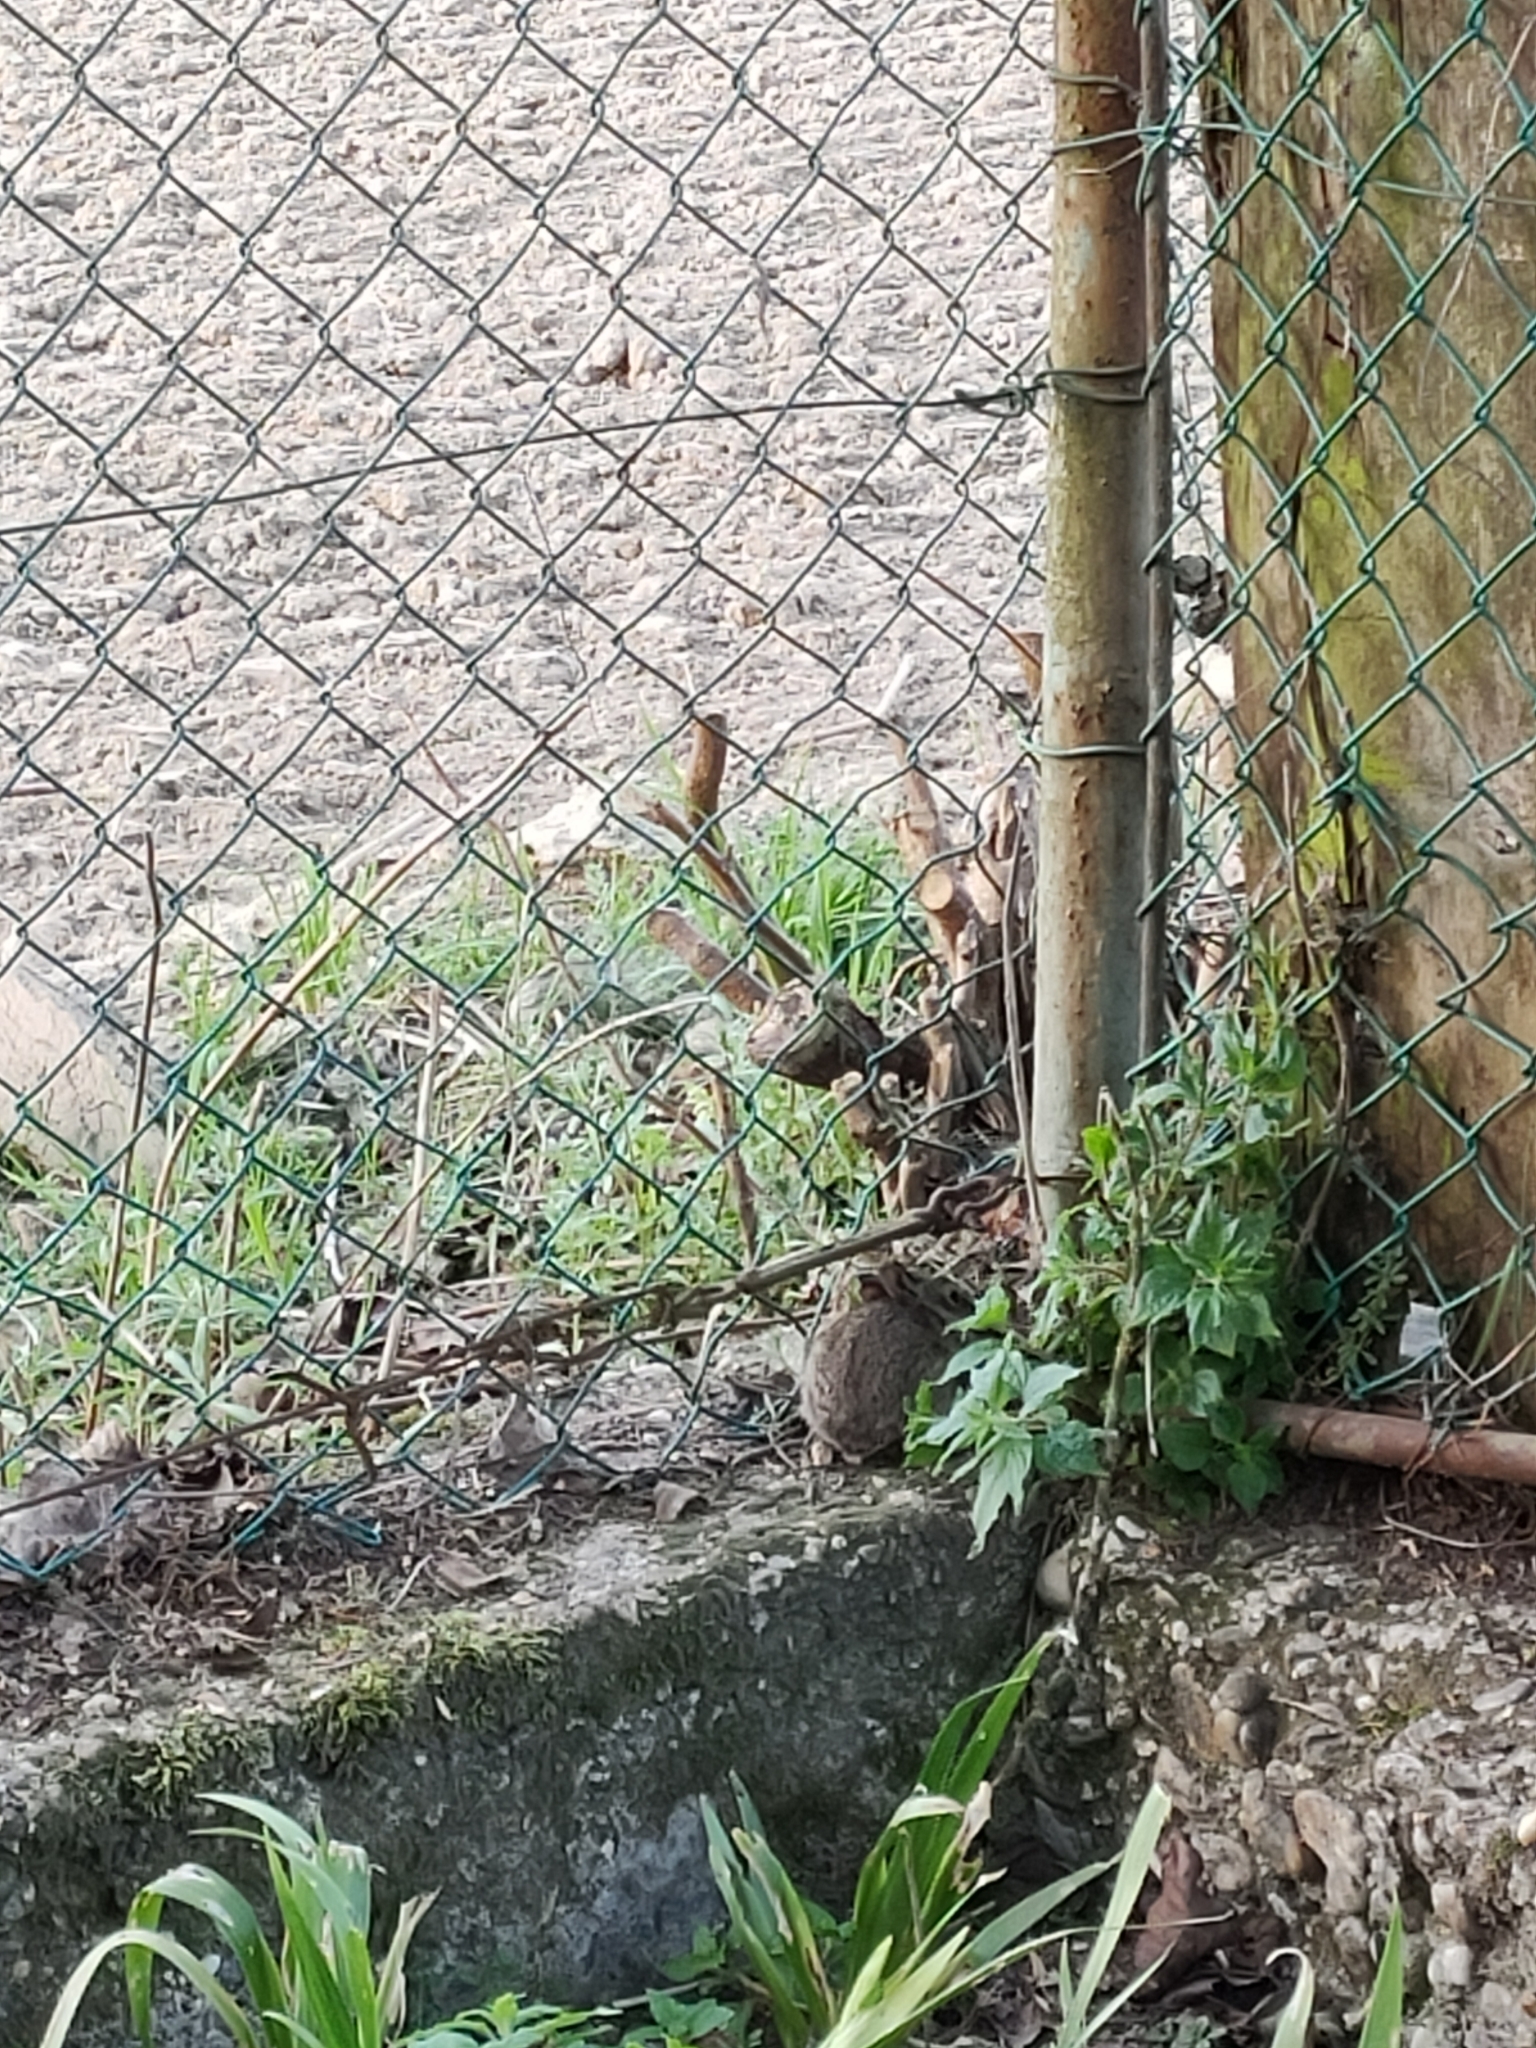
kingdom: Animalia
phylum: Chordata
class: Mammalia
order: Lagomorpha
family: Leporidae
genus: Sylvilagus
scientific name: Sylvilagus floridanus
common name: Eastern cottontail
